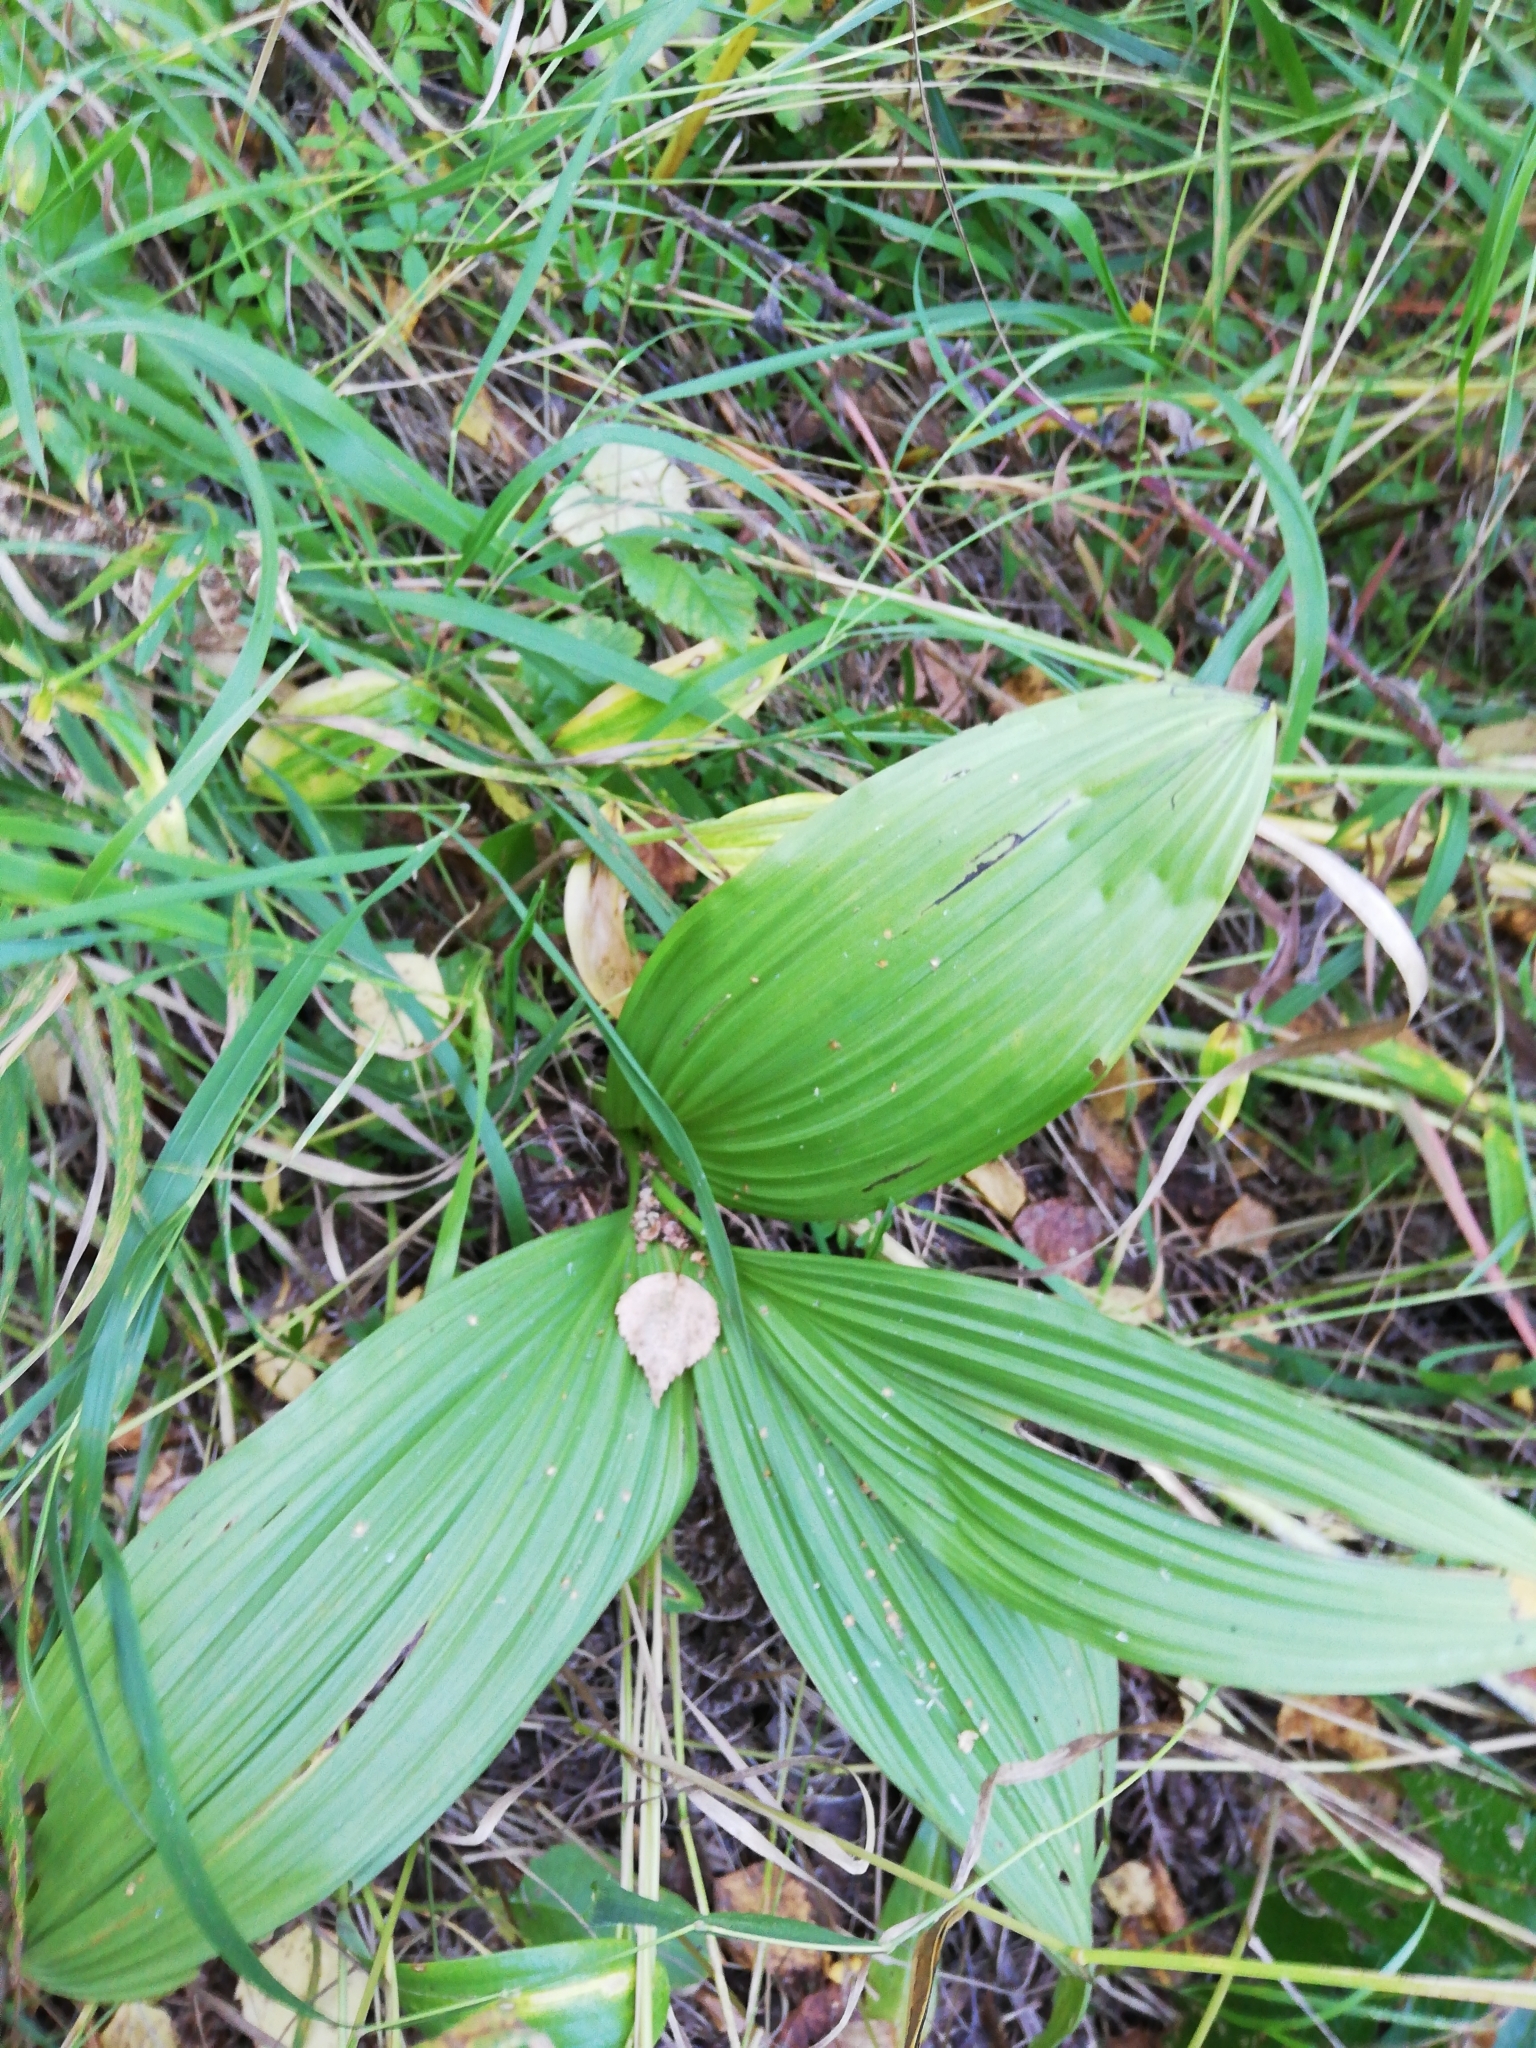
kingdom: Plantae
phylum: Tracheophyta
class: Liliopsida
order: Liliales
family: Melanthiaceae
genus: Veratrum
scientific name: Veratrum lobelianum
